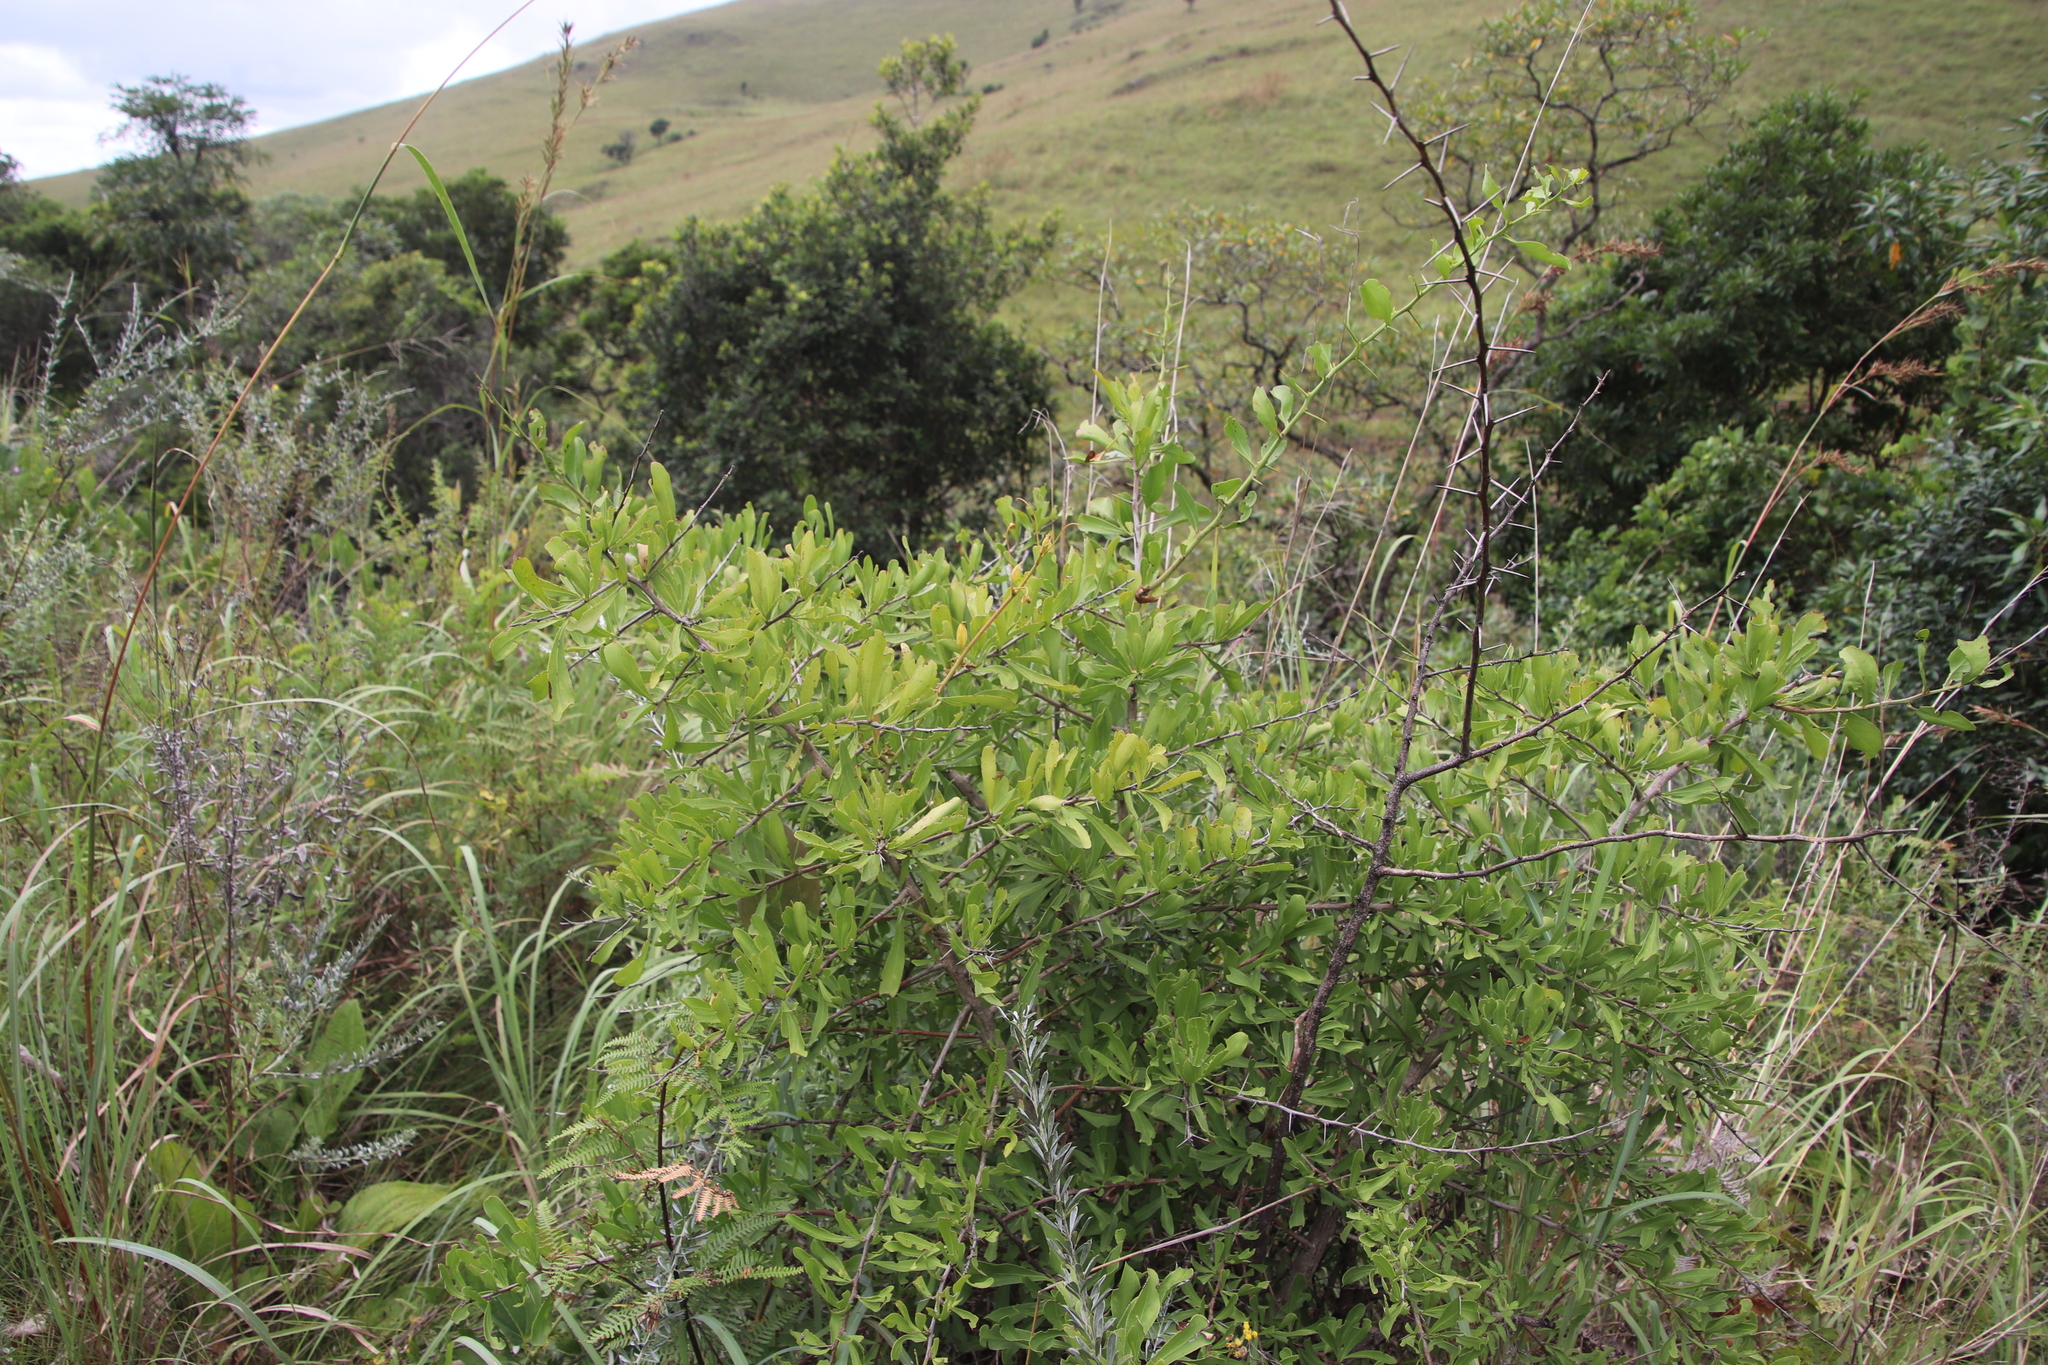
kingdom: Plantae
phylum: Tracheophyta
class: Magnoliopsida
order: Celastrales
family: Celastraceae
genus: Gymnosporia
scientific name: Gymnosporia tenuispina
